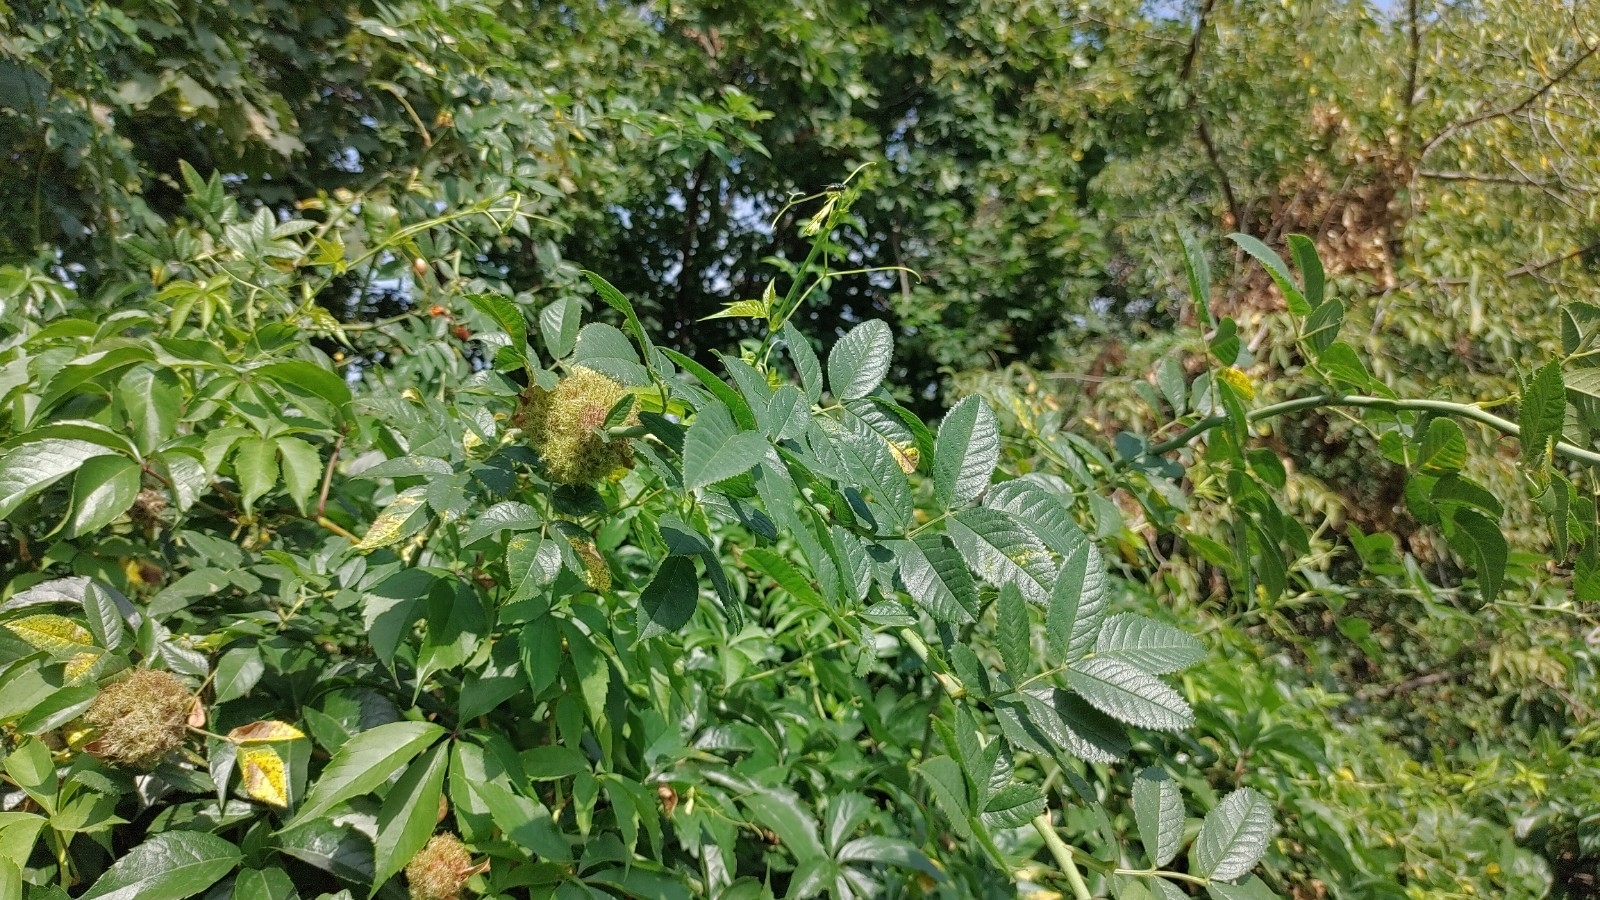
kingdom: Animalia
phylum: Arthropoda
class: Insecta
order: Hymenoptera
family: Cynipidae
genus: Diplolepis
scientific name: Diplolepis rosae
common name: Bedeguar gall
